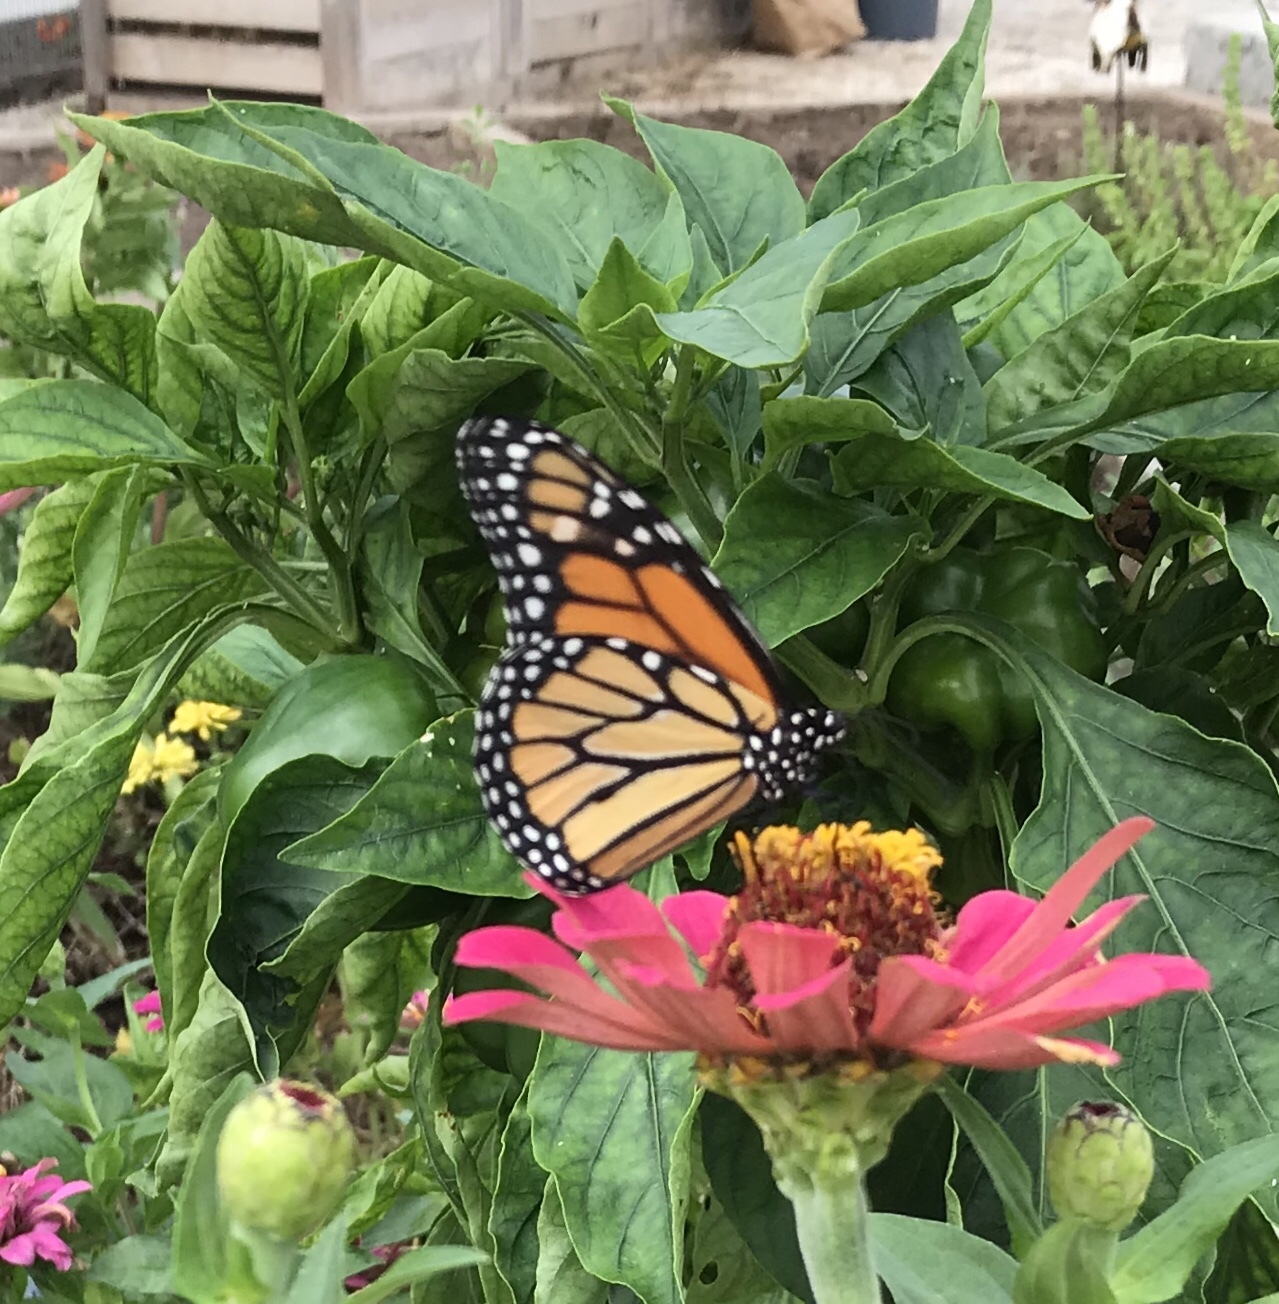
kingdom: Animalia
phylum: Arthropoda
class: Insecta
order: Lepidoptera
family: Nymphalidae
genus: Danaus
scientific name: Danaus plexippus
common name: Monarch
